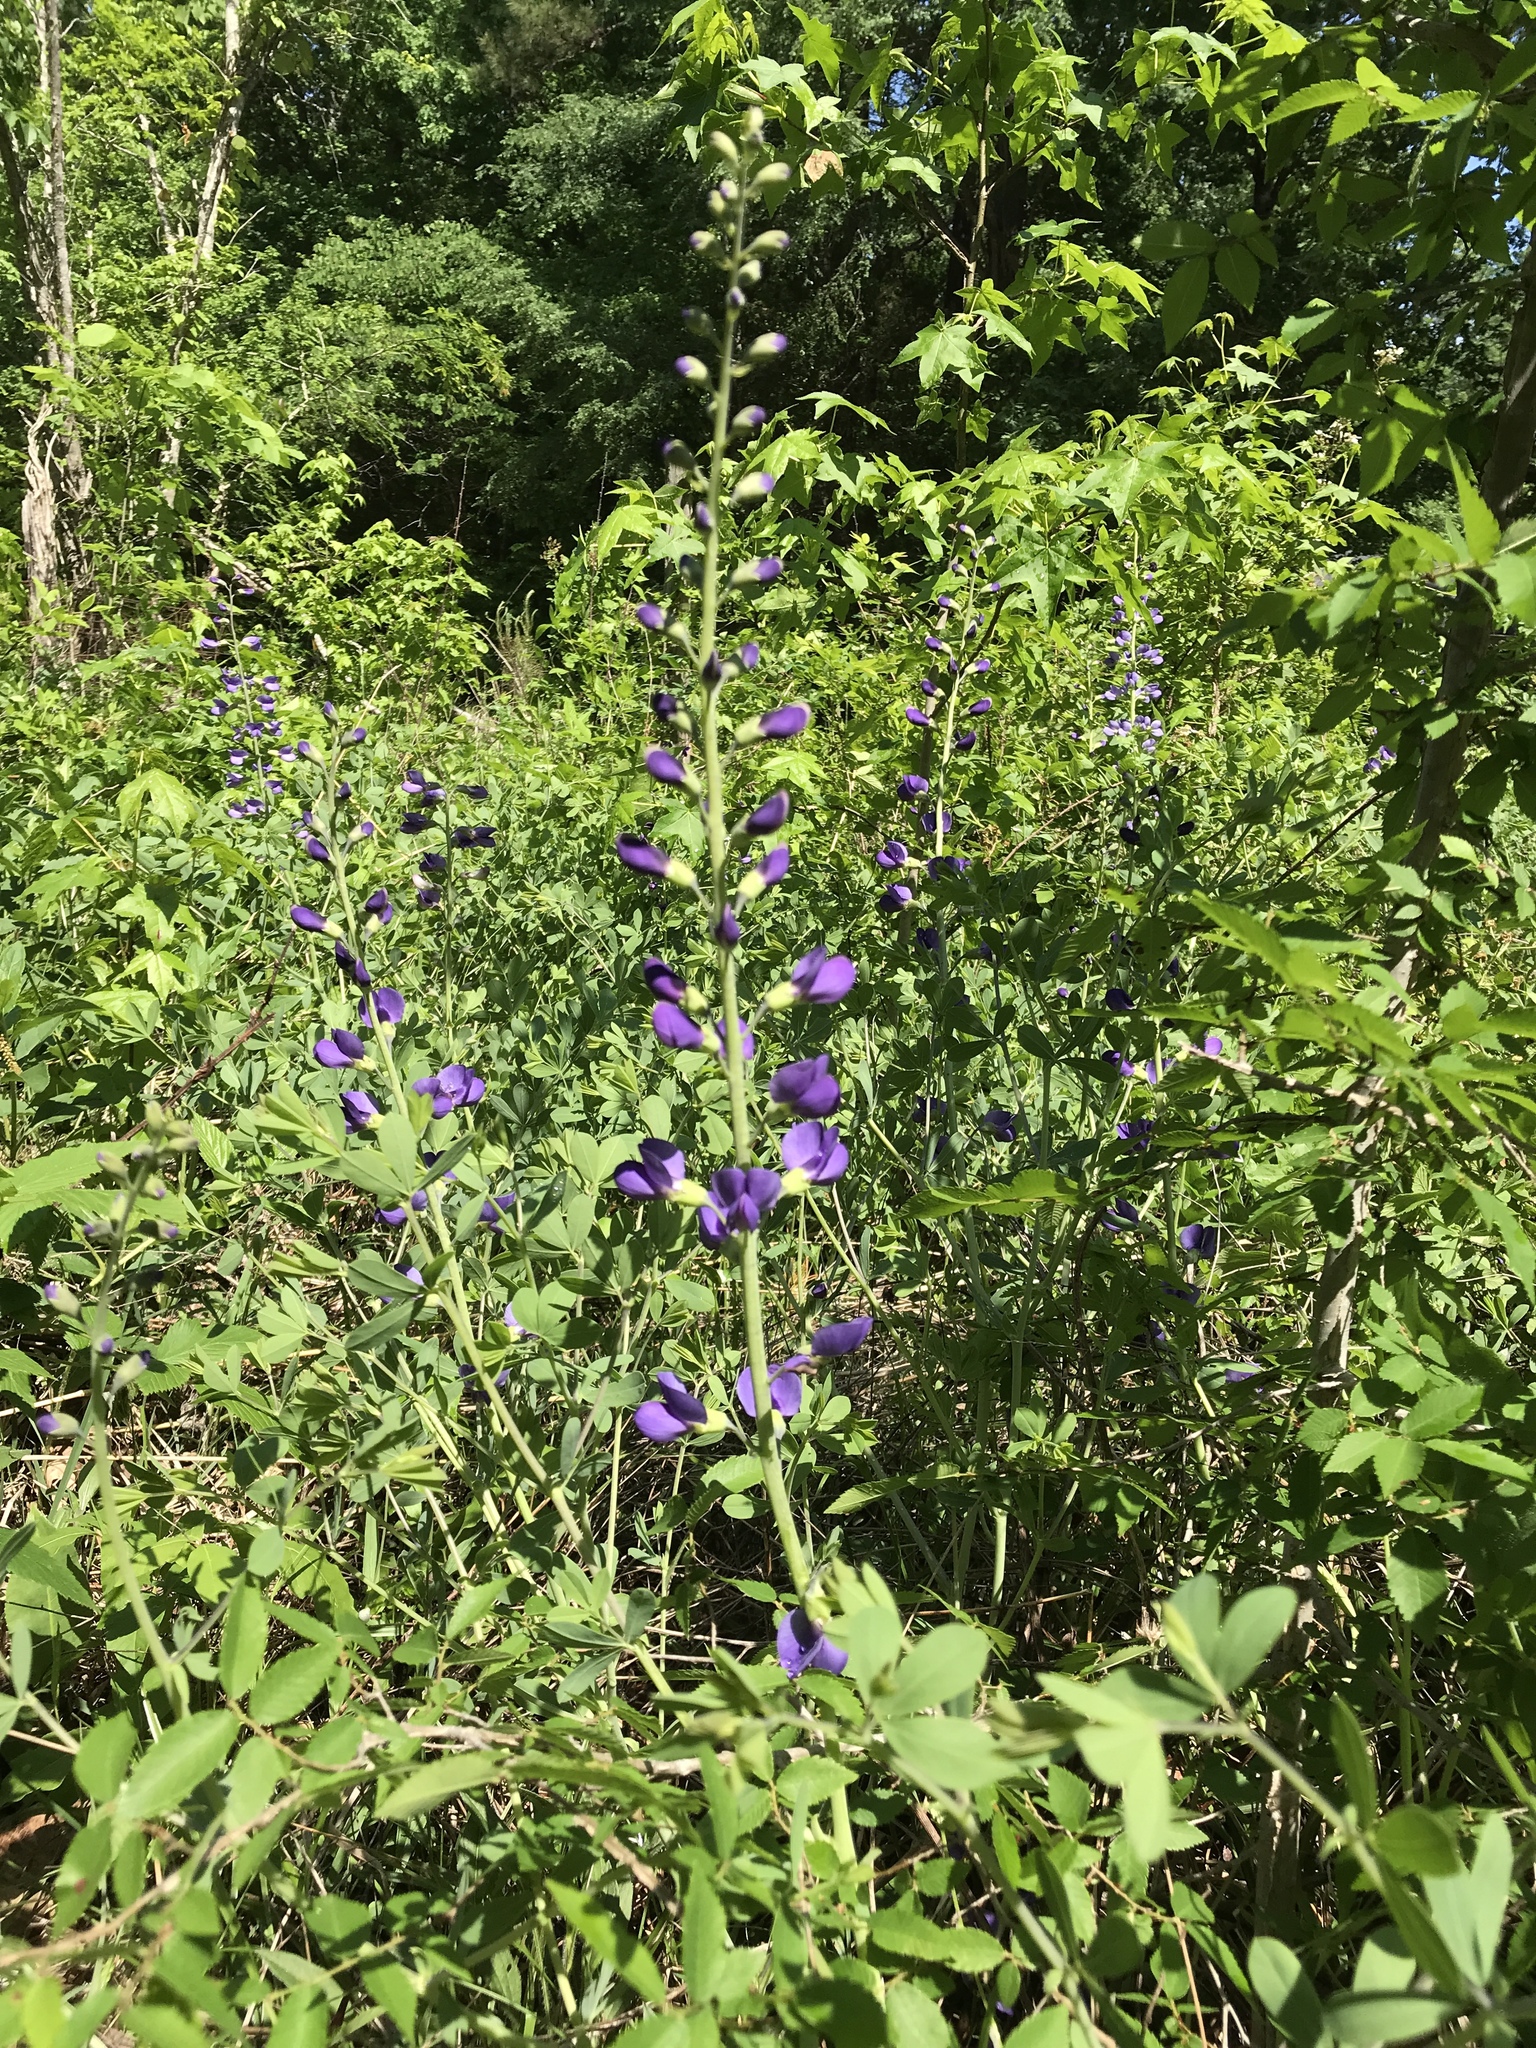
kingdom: Plantae
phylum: Tracheophyta
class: Magnoliopsida
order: Fabales
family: Fabaceae
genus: Baptisia
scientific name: Baptisia aberrans
